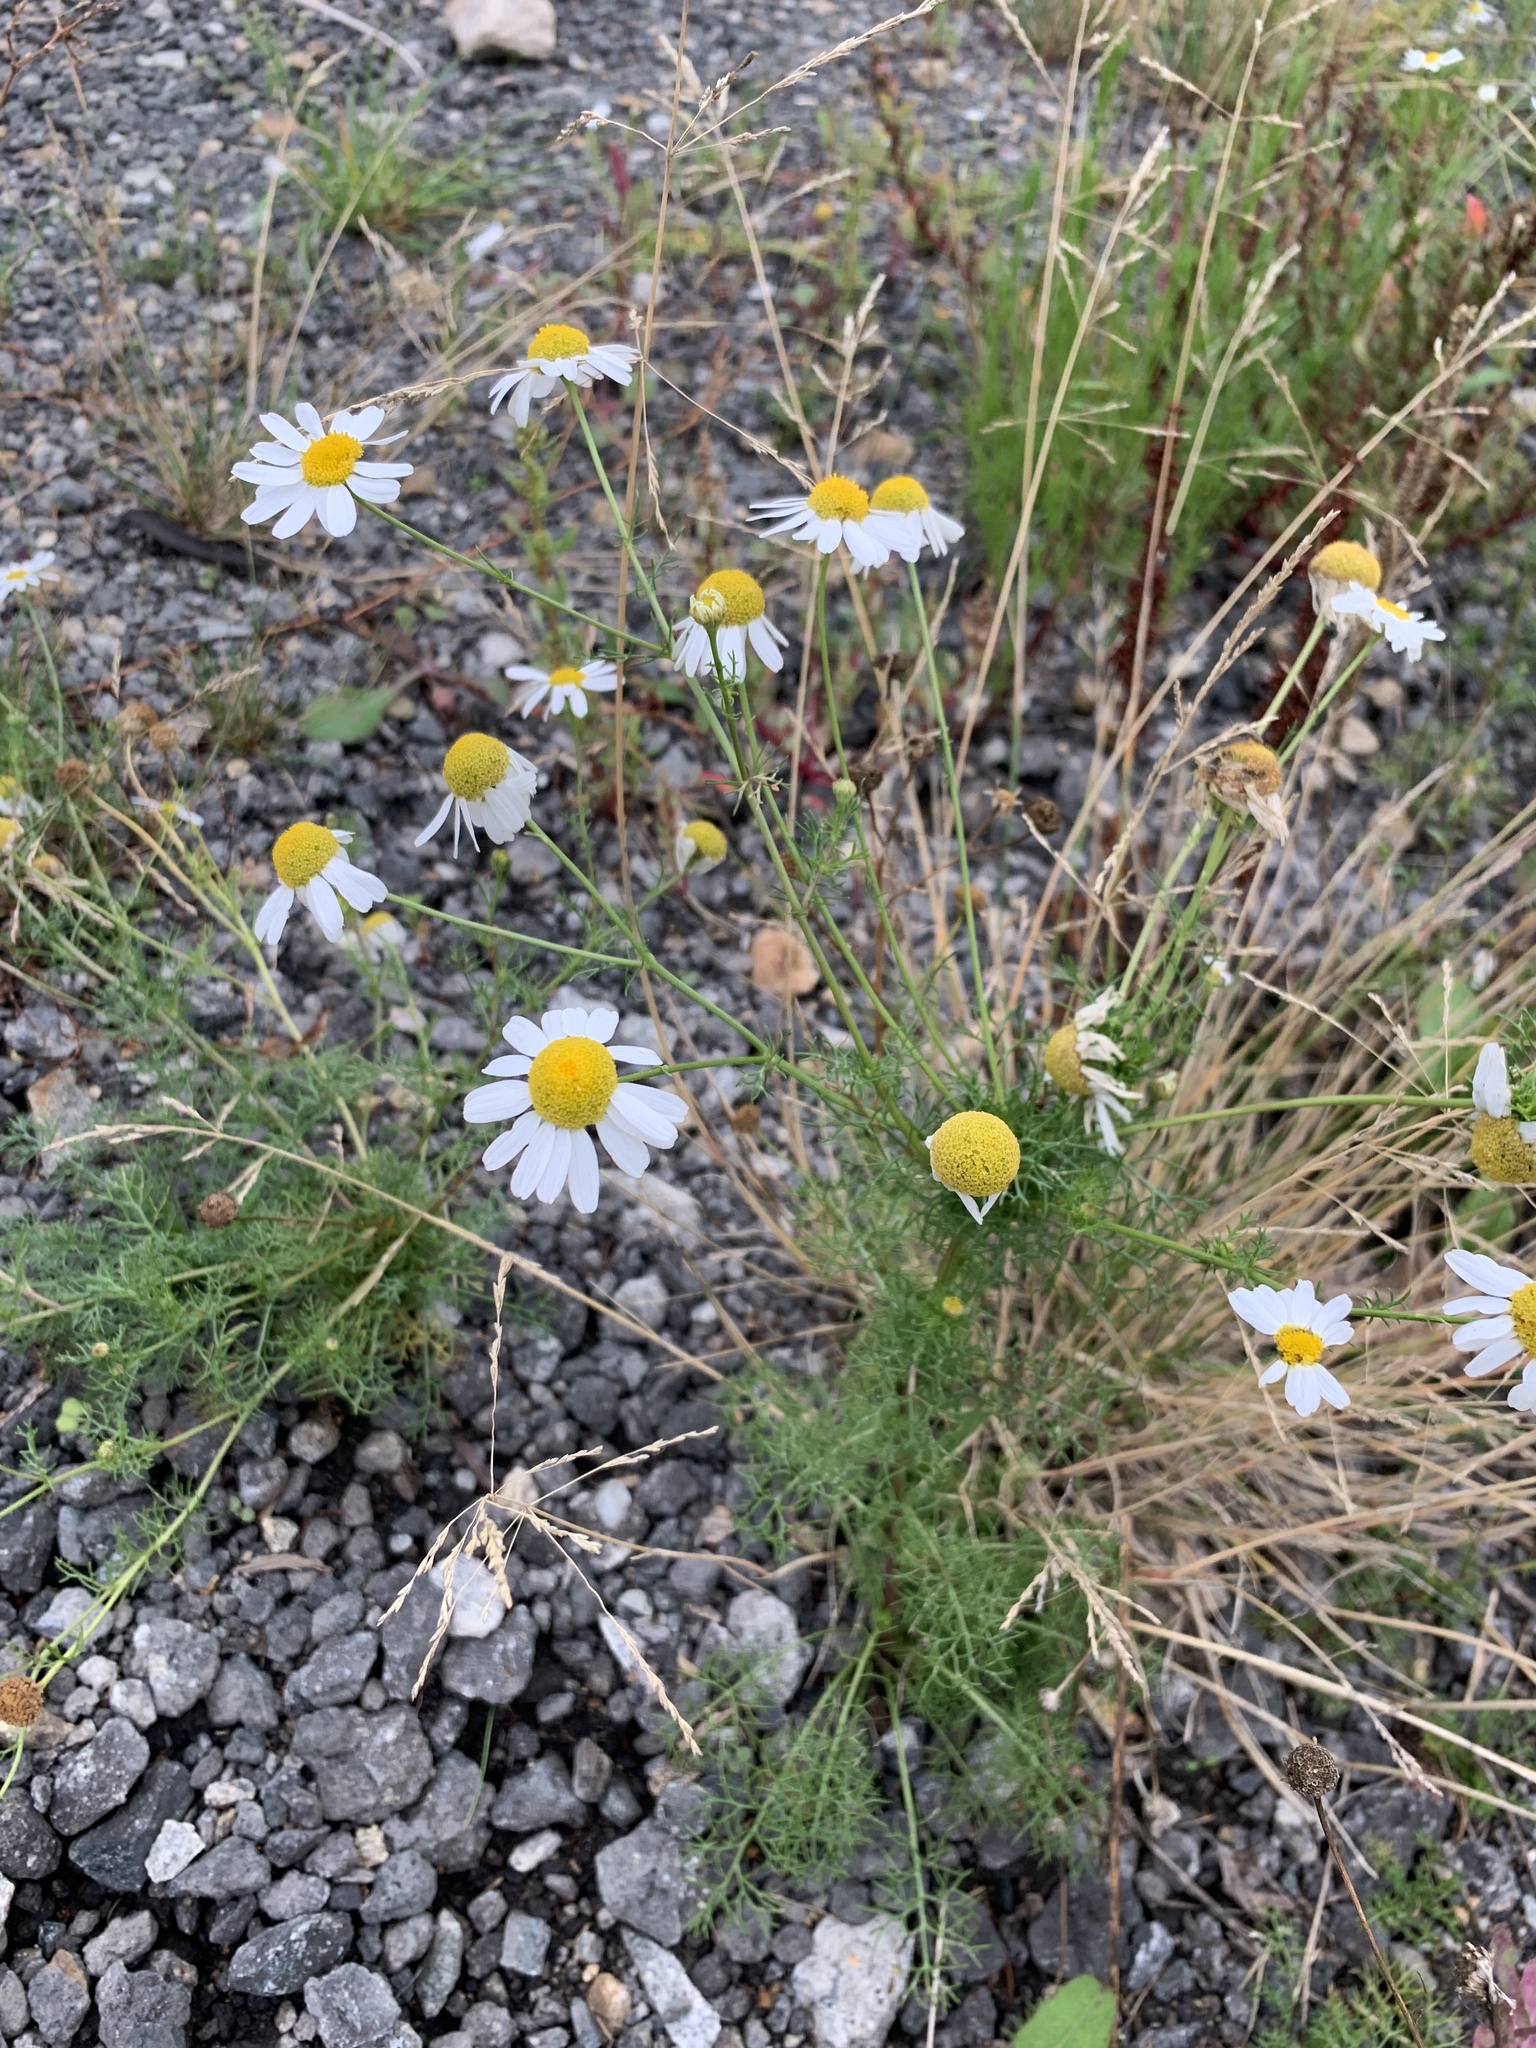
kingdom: Plantae
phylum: Tracheophyta
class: Magnoliopsida
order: Asterales
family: Asteraceae
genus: Tripleurospermum
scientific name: Tripleurospermum inodorum
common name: Scentless mayweed
